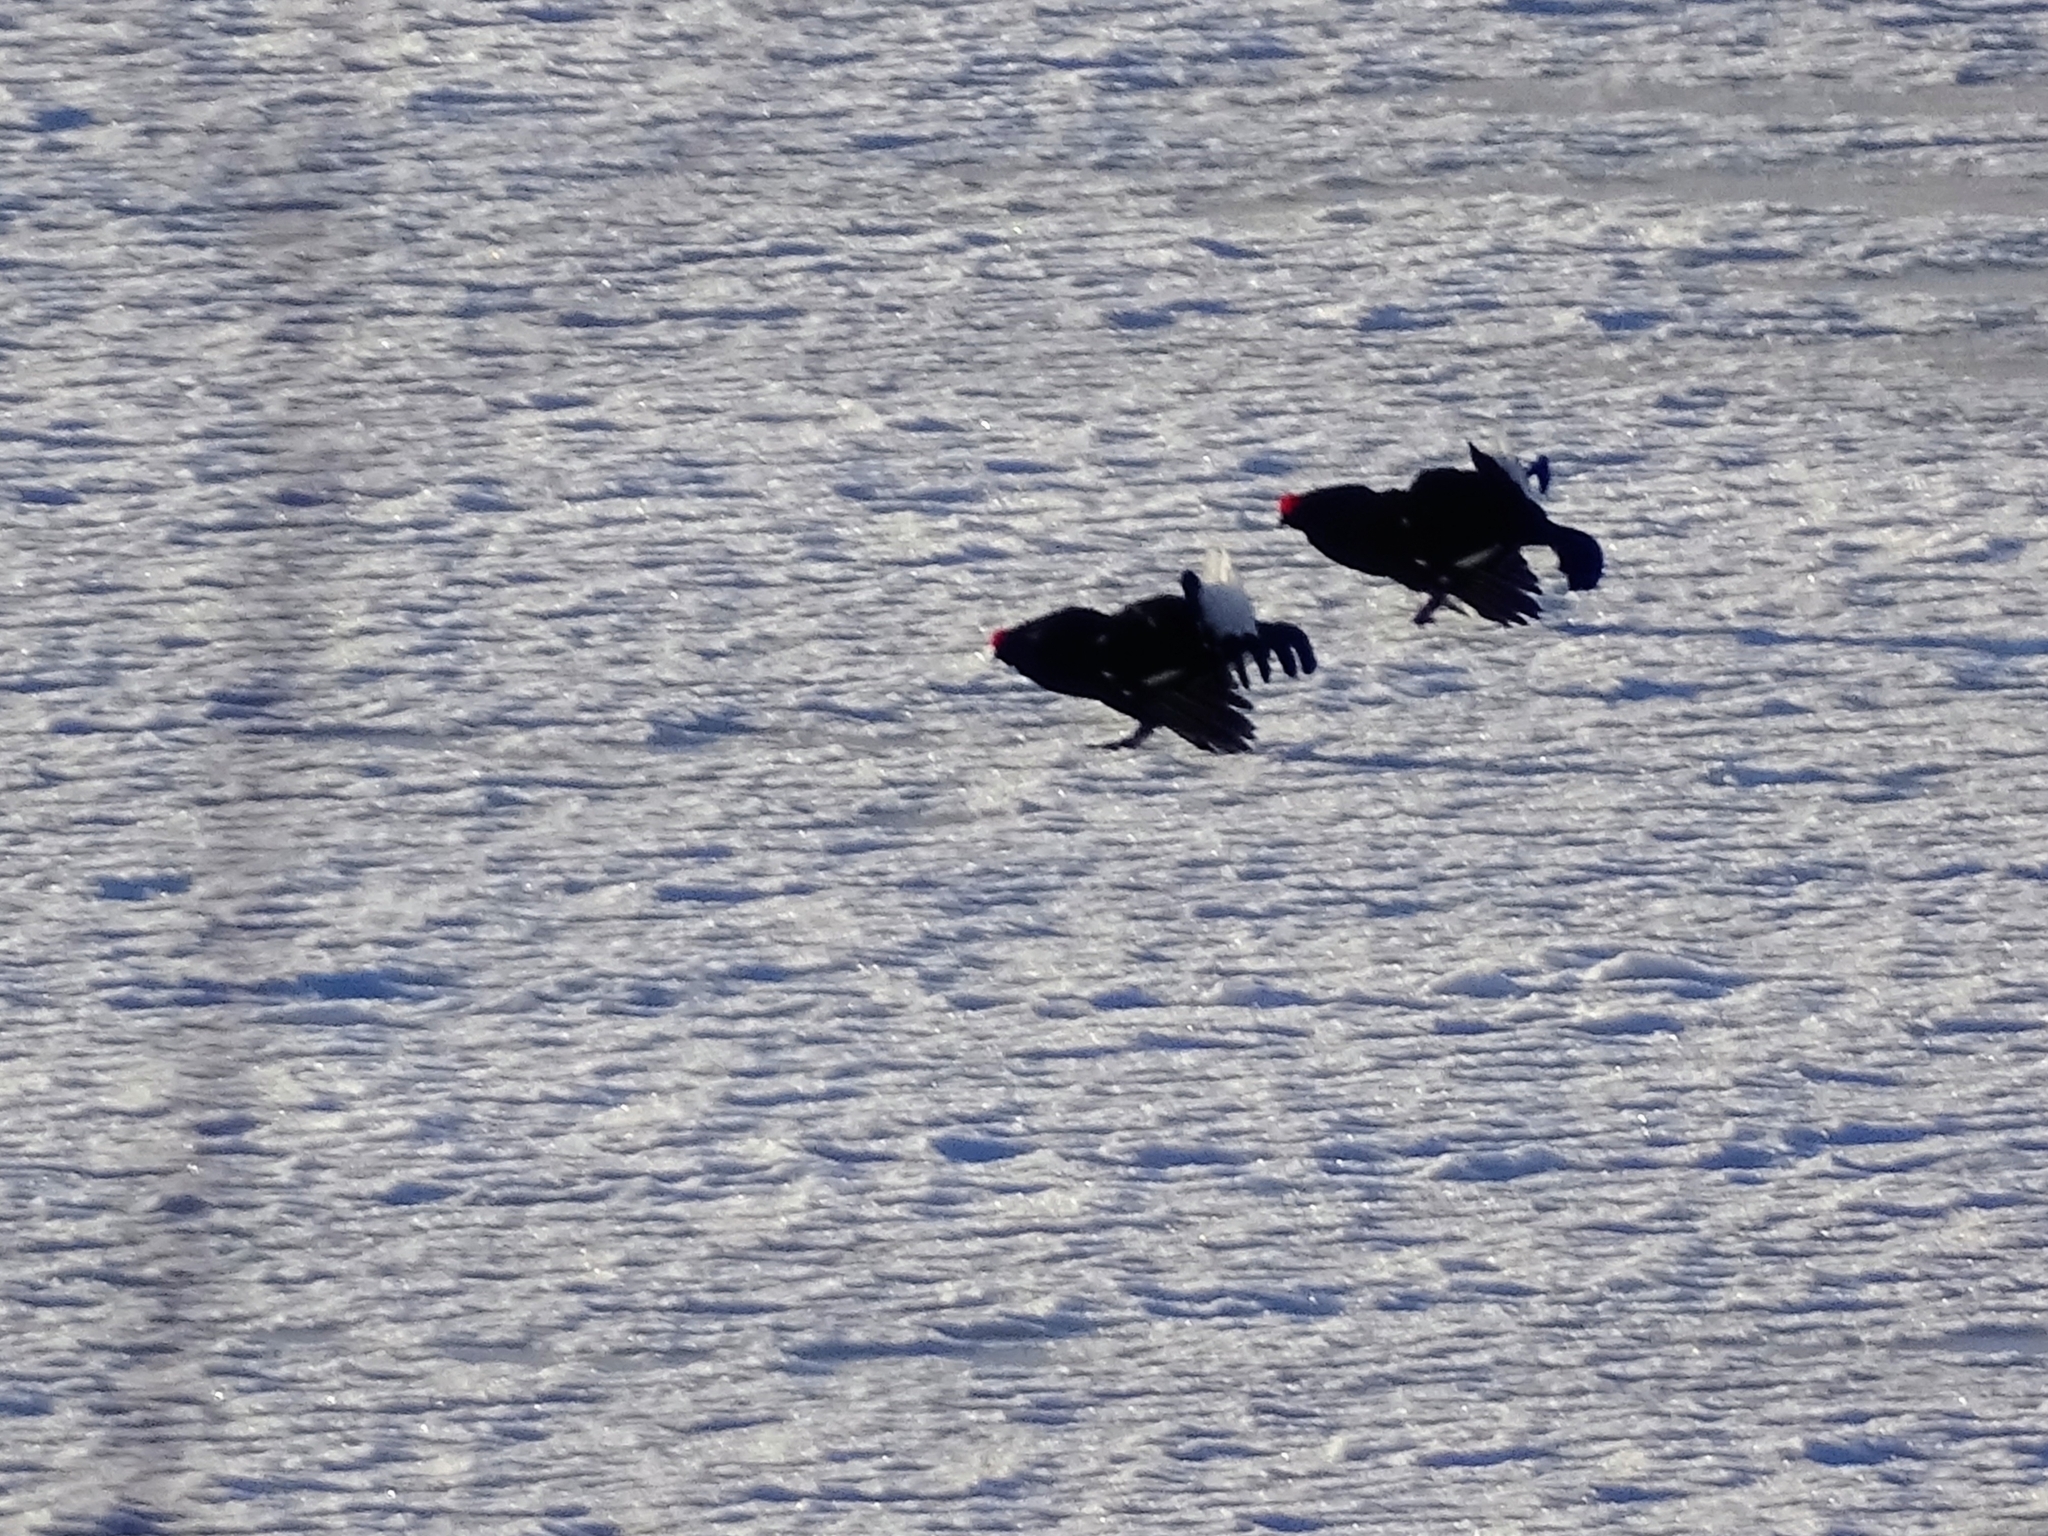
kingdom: Animalia
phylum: Chordata
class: Aves
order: Galliformes
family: Phasianidae
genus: Lyrurus
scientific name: Lyrurus tetrix
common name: Black grouse
